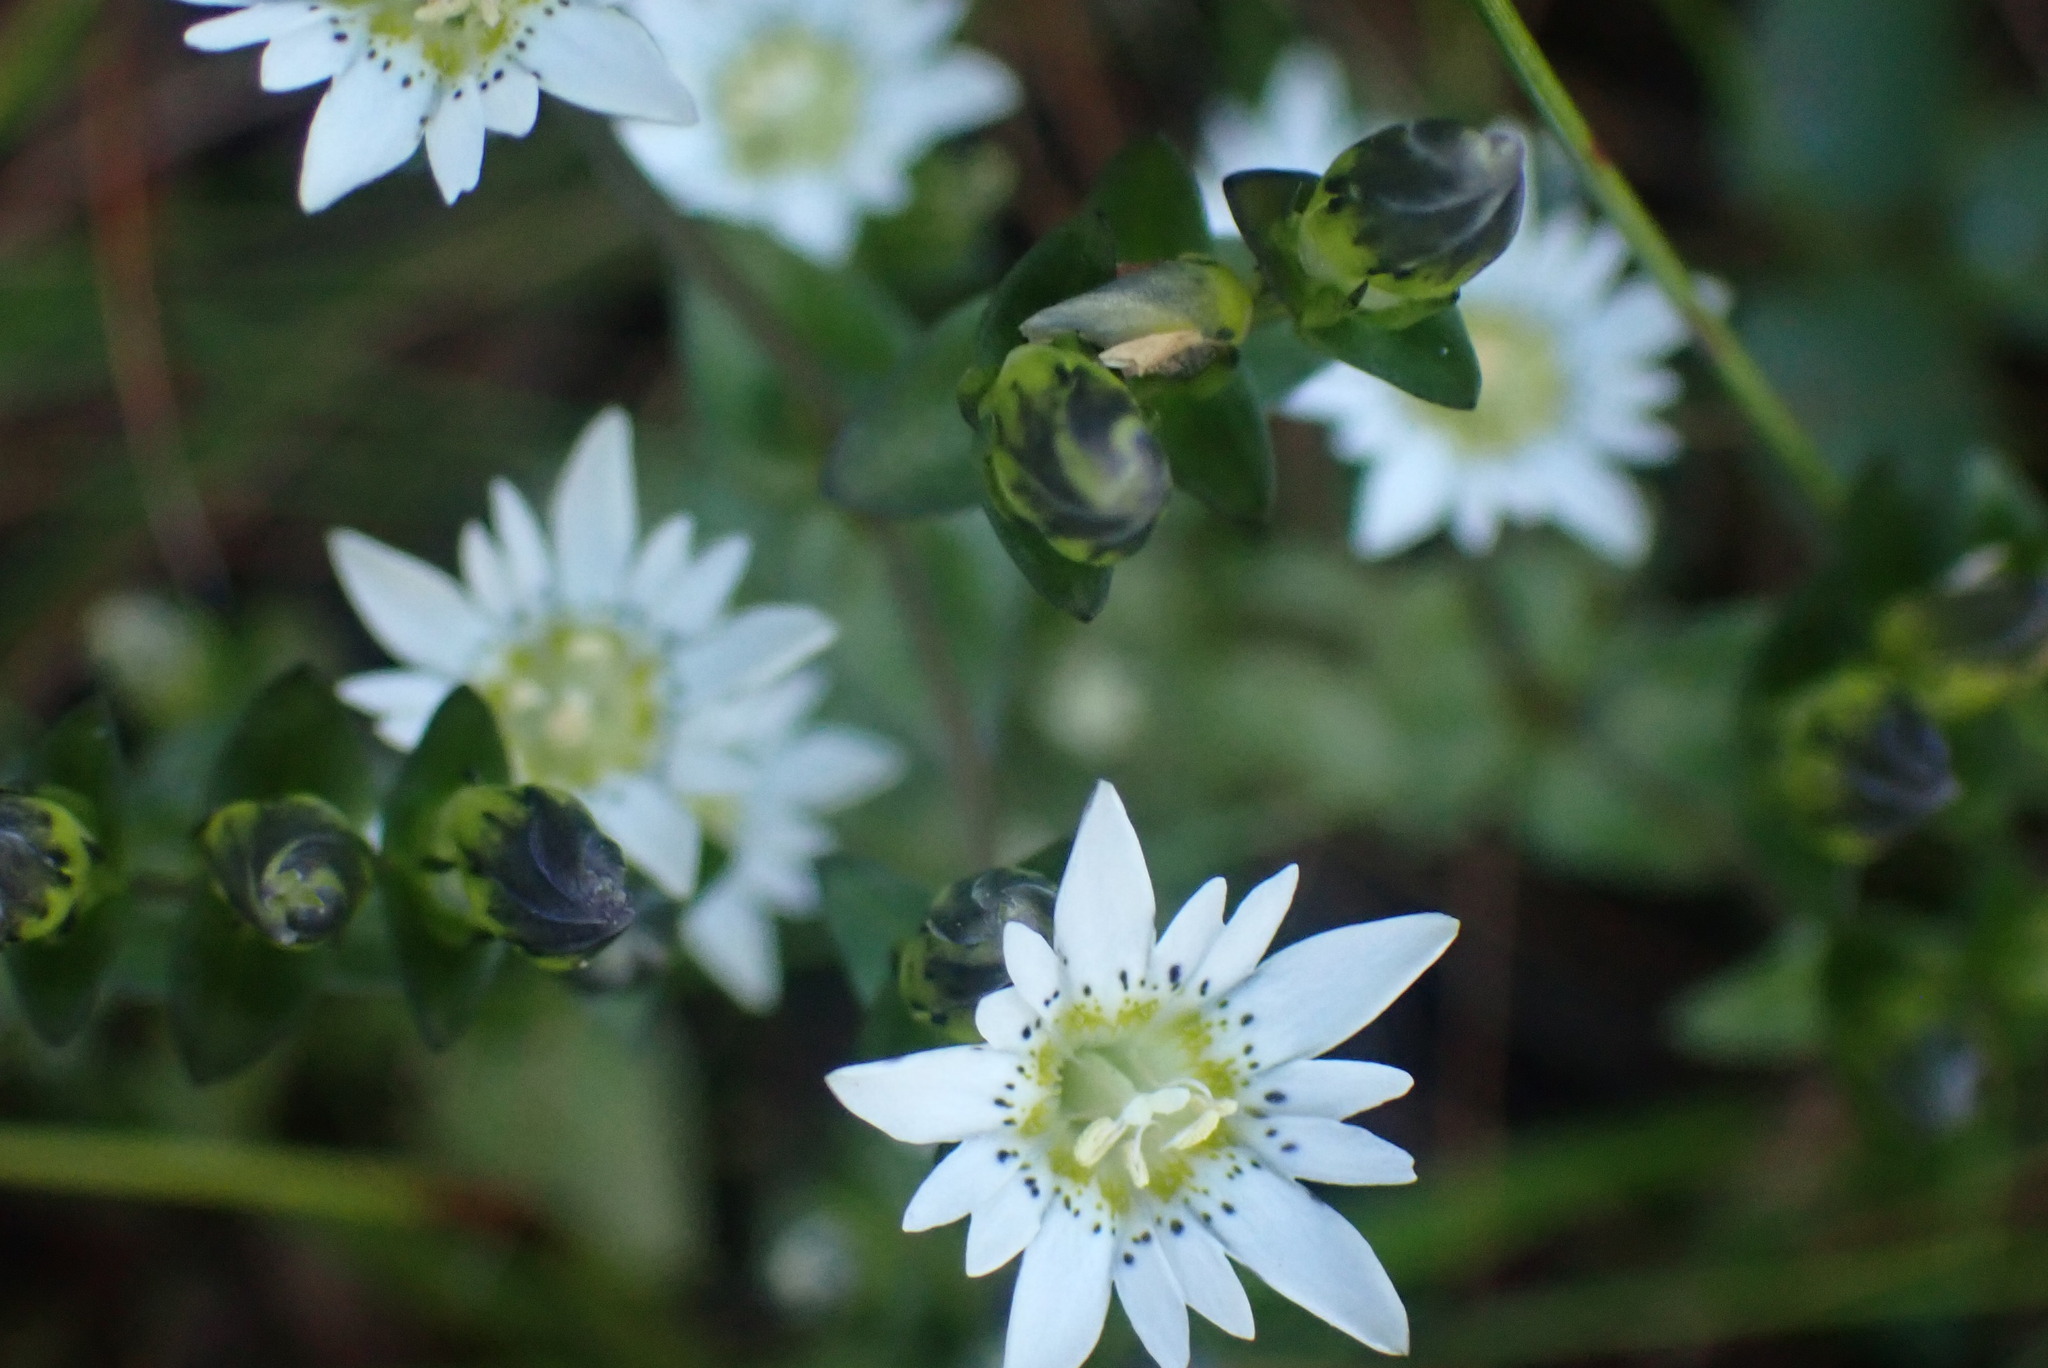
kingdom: Plantae
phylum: Tracheophyta
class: Magnoliopsida
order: Gentianales
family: Gentianaceae
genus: Gentiana
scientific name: Gentiana douglasiana
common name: Swamp gentian
